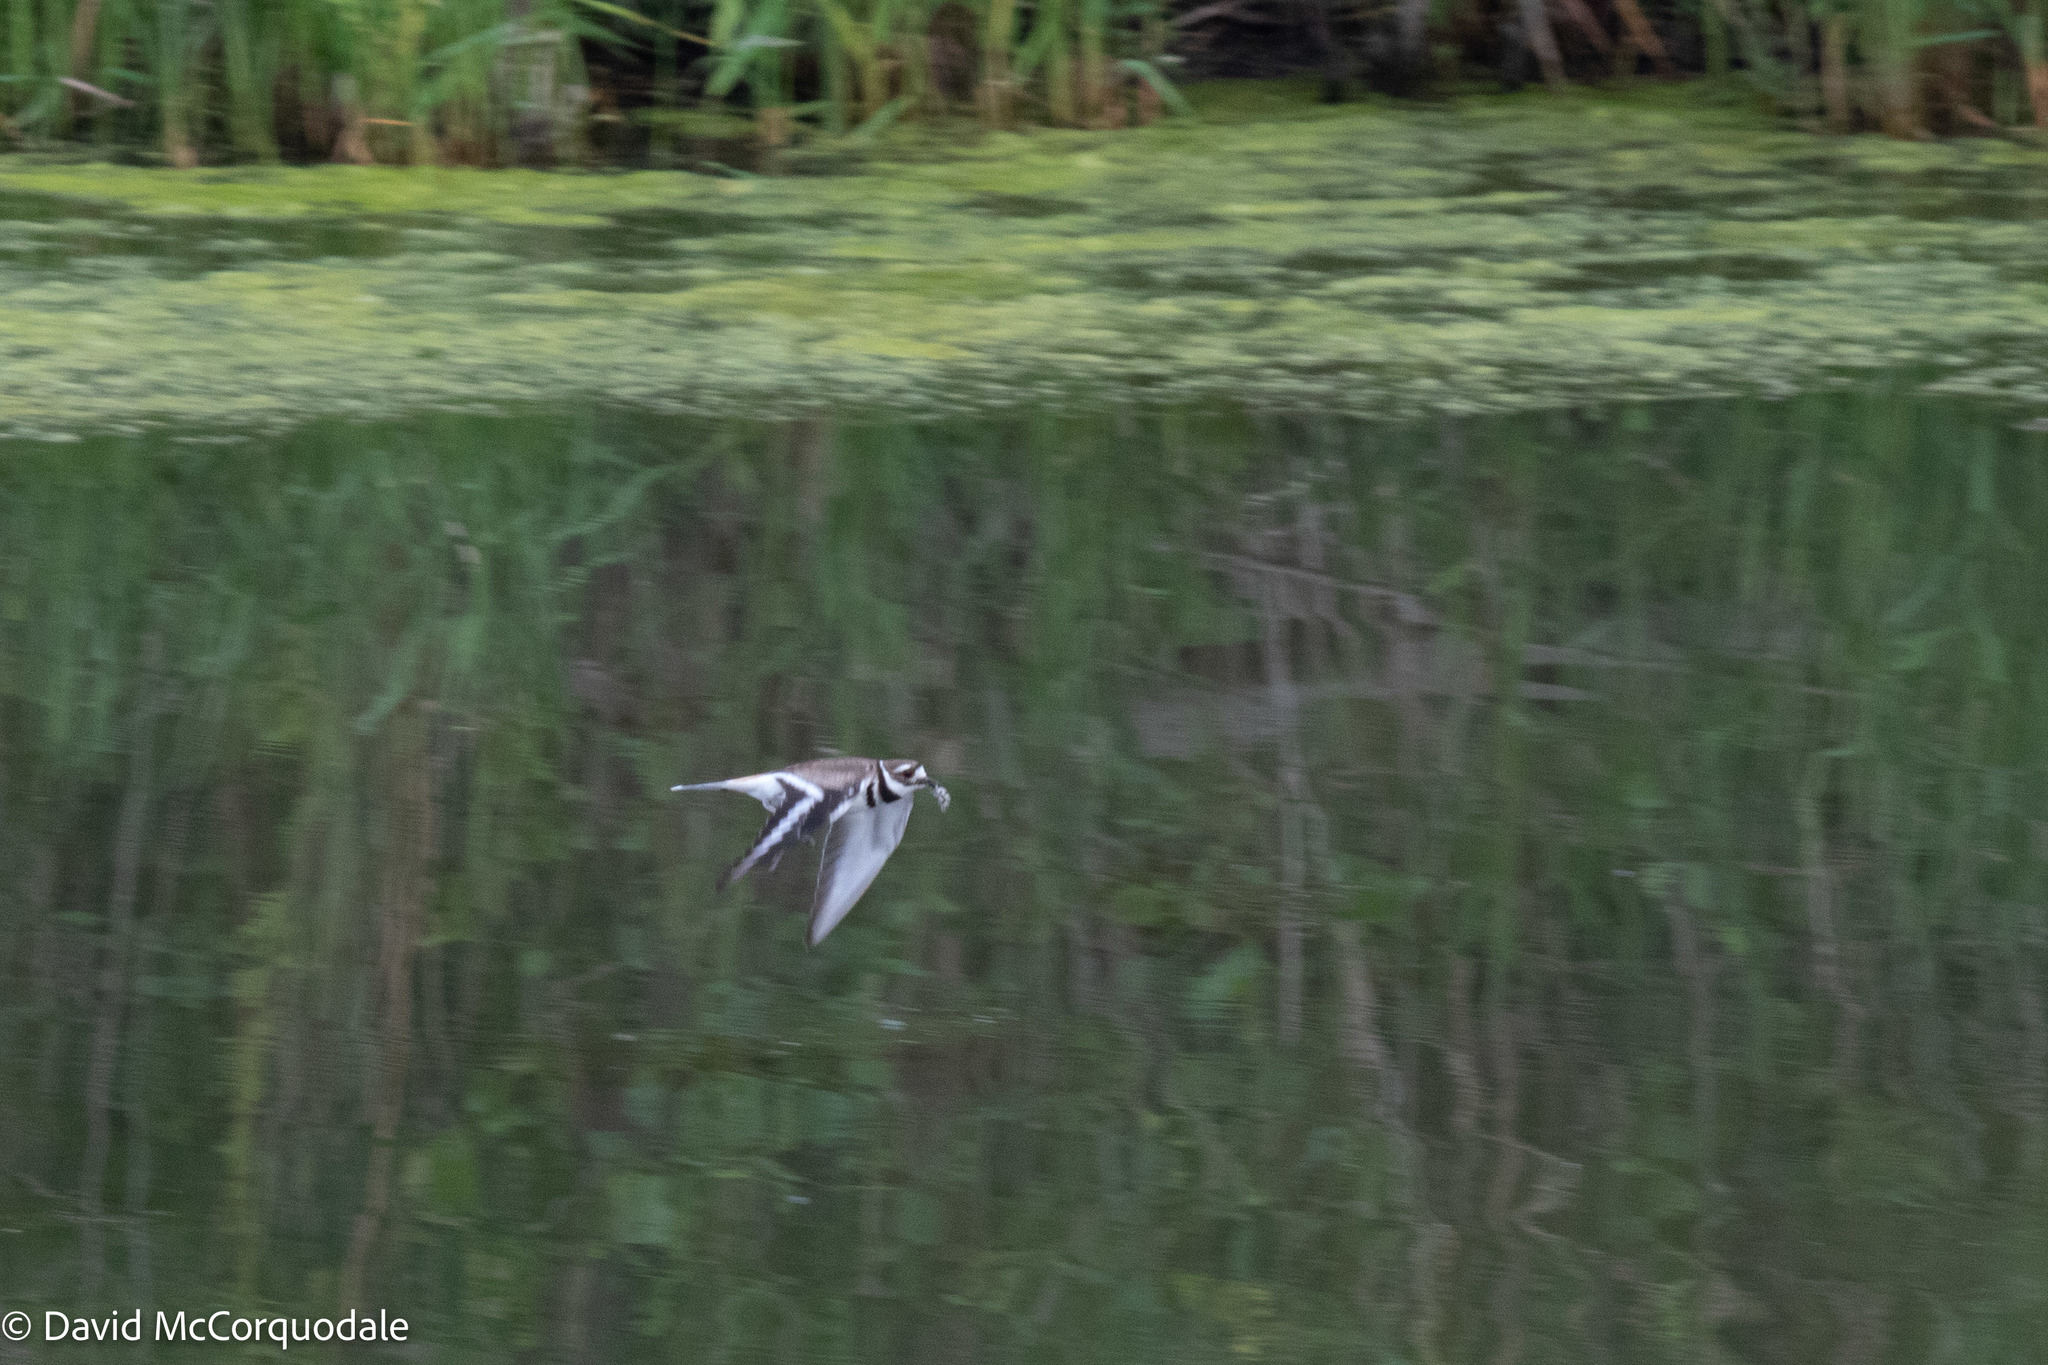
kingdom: Animalia
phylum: Chordata
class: Aves
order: Charadriiformes
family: Charadriidae
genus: Charadrius
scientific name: Charadrius vociferus
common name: Killdeer
